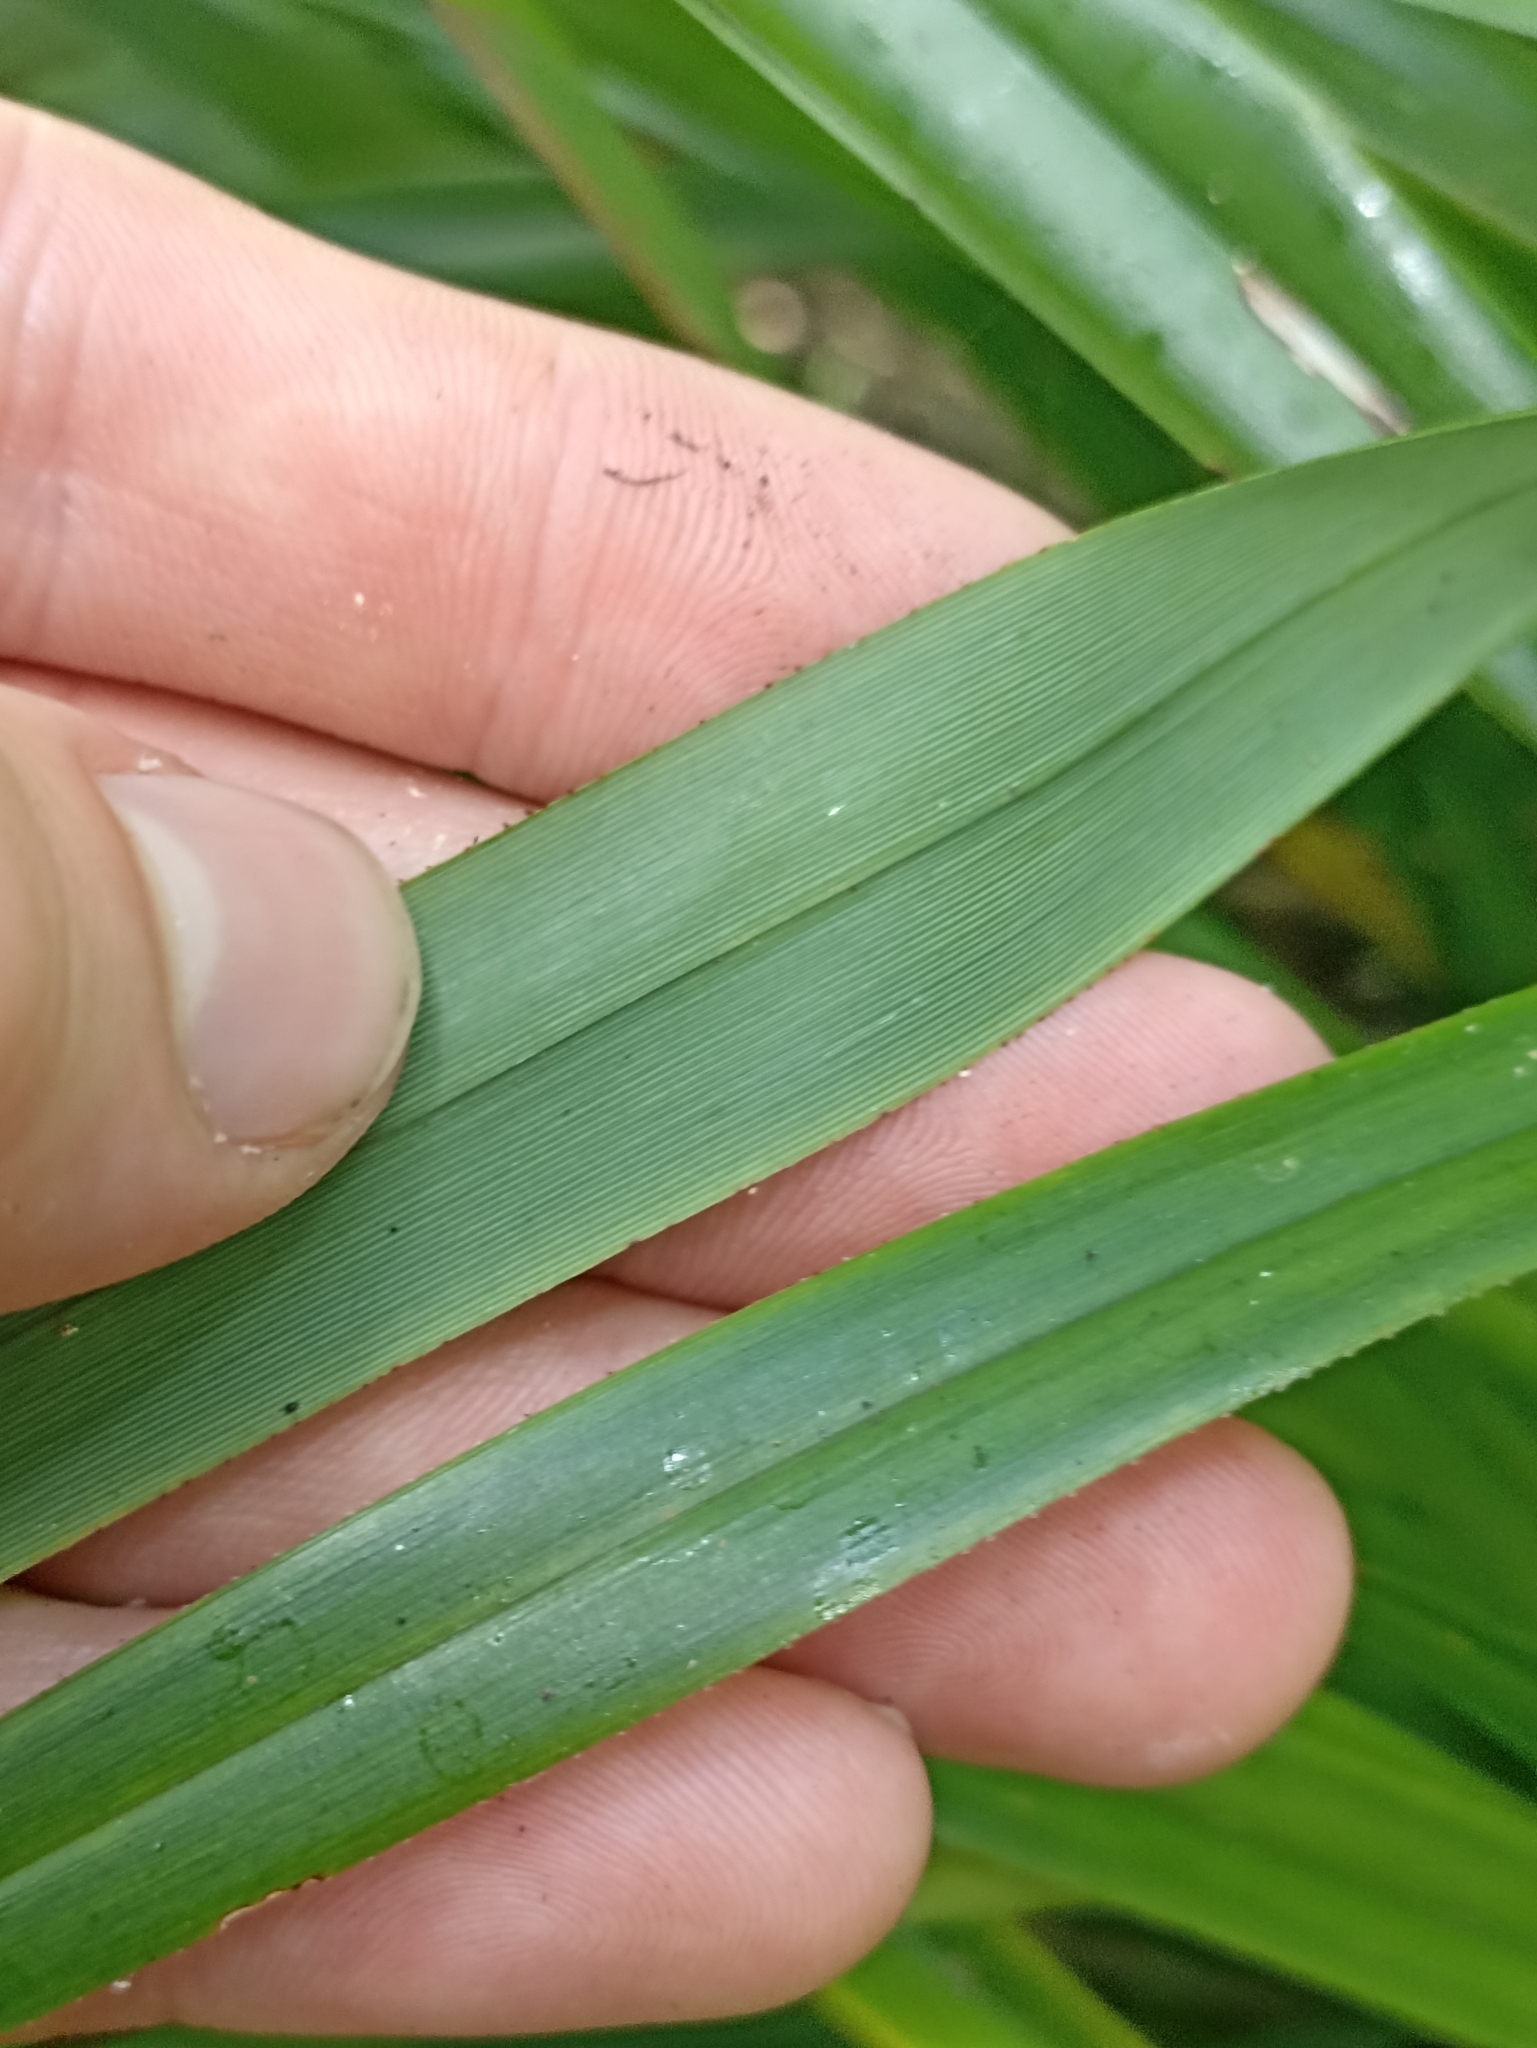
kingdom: Plantae
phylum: Tracheophyta
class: Liliopsida
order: Asparagales
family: Asphodelaceae
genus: Dianella
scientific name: Dianella nigra
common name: New zealand-blueberry
